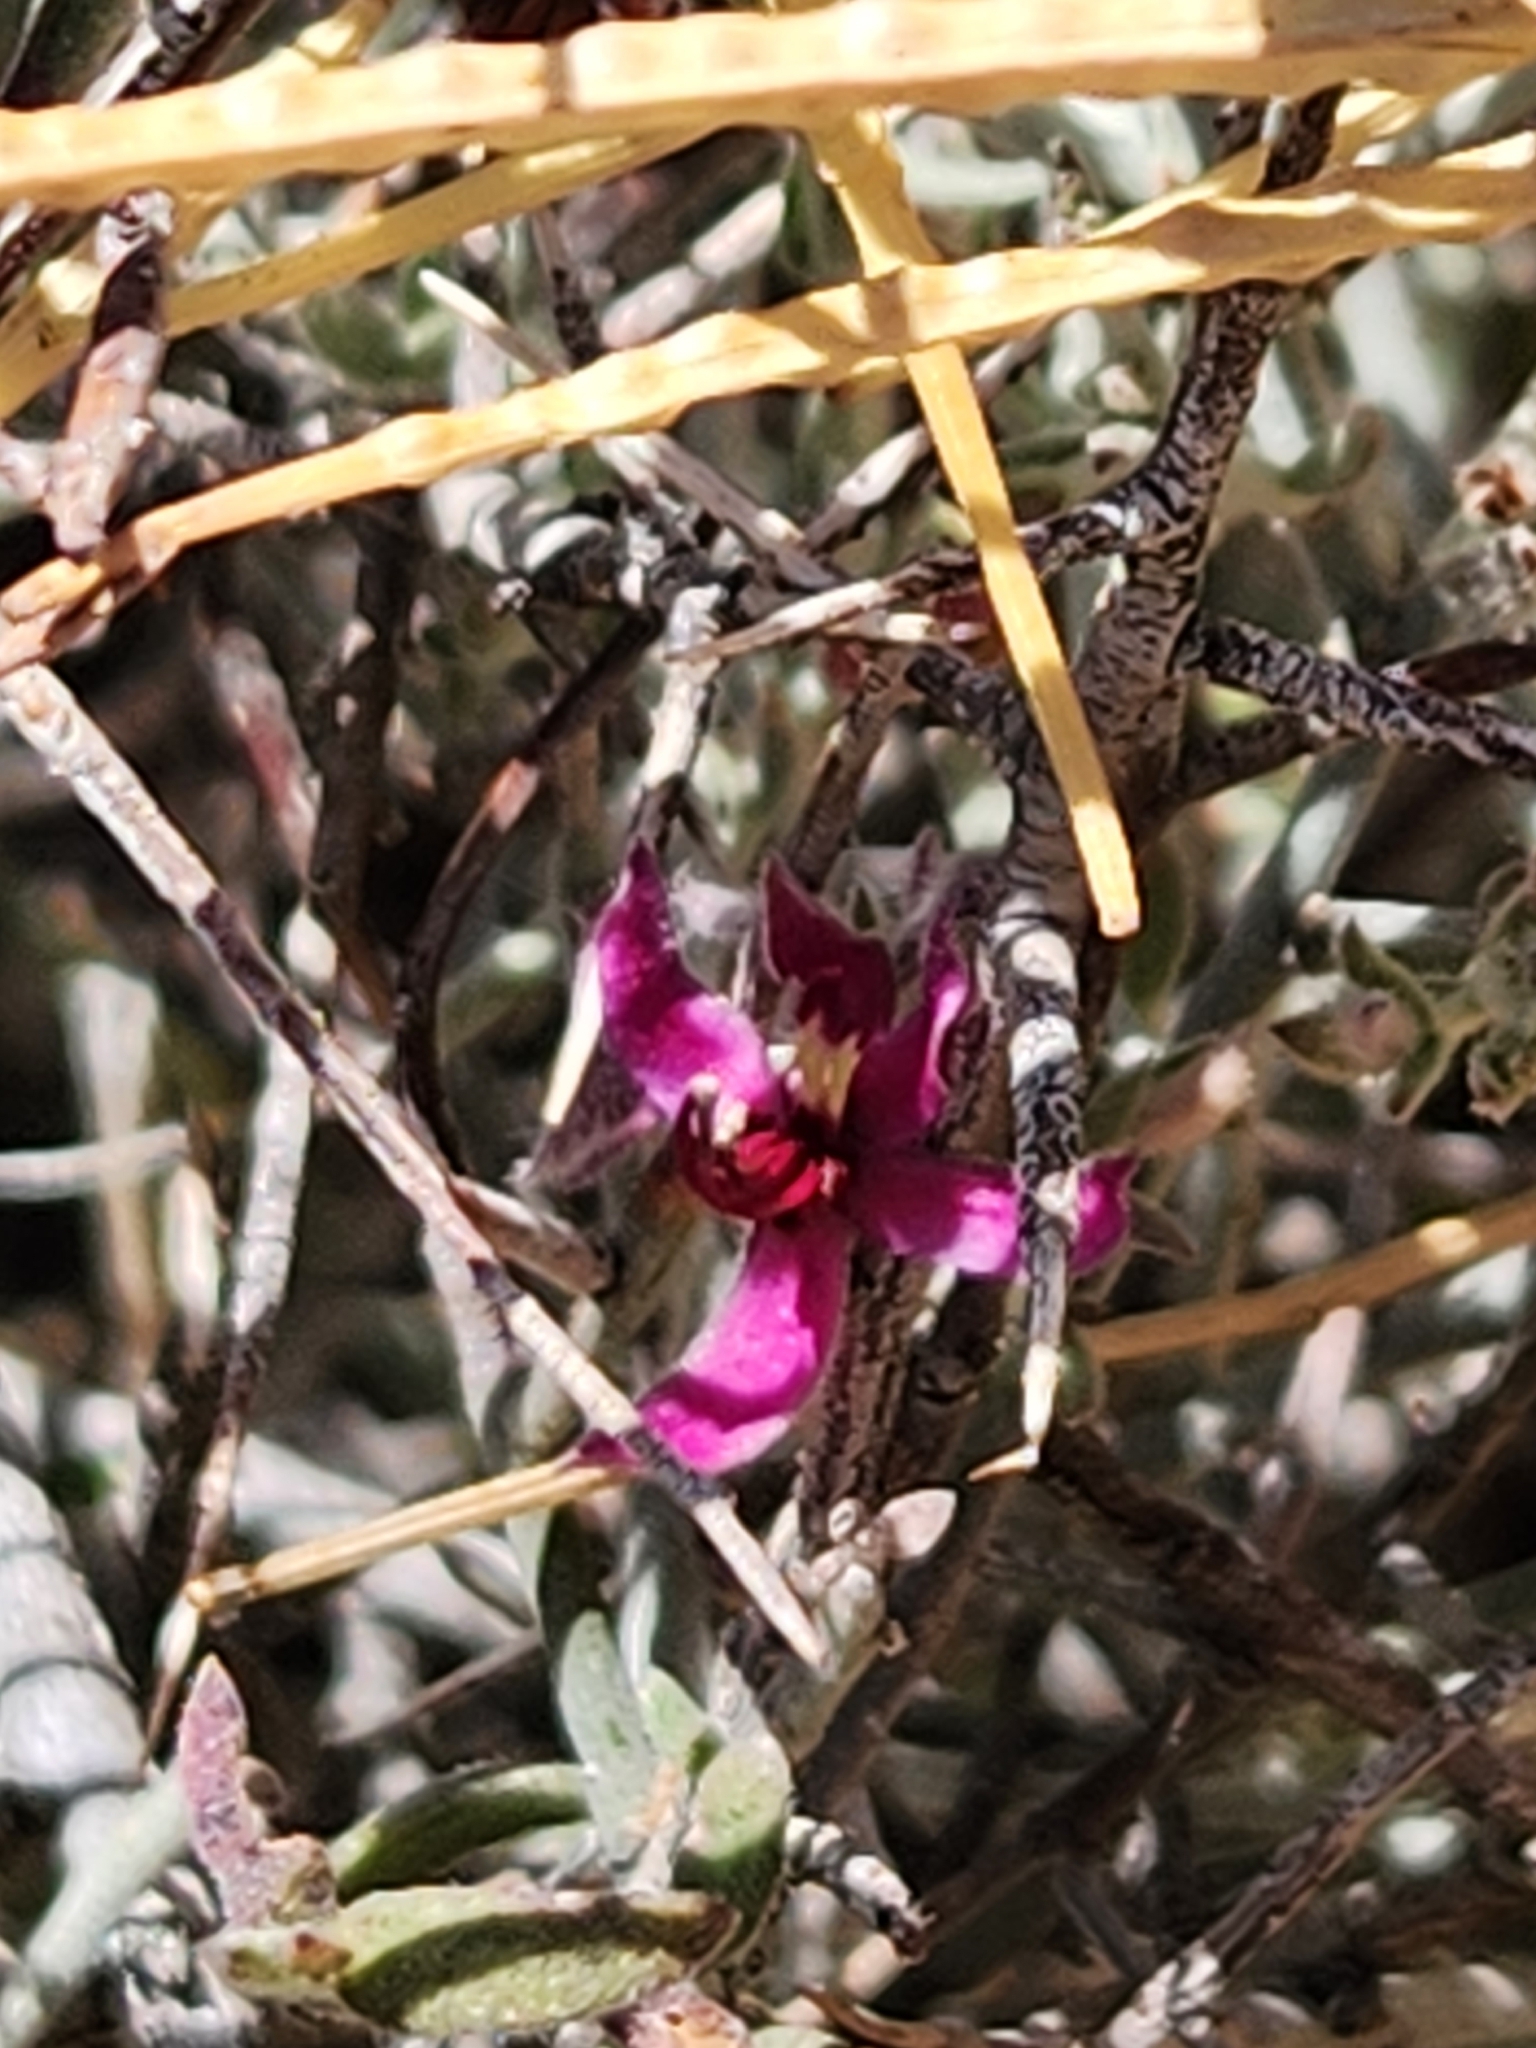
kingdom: Plantae
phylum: Tracheophyta
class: Magnoliopsida
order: Zygophyllales
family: Krameriaceae
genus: Krameria
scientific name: Krameria bicolor
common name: White ratany
